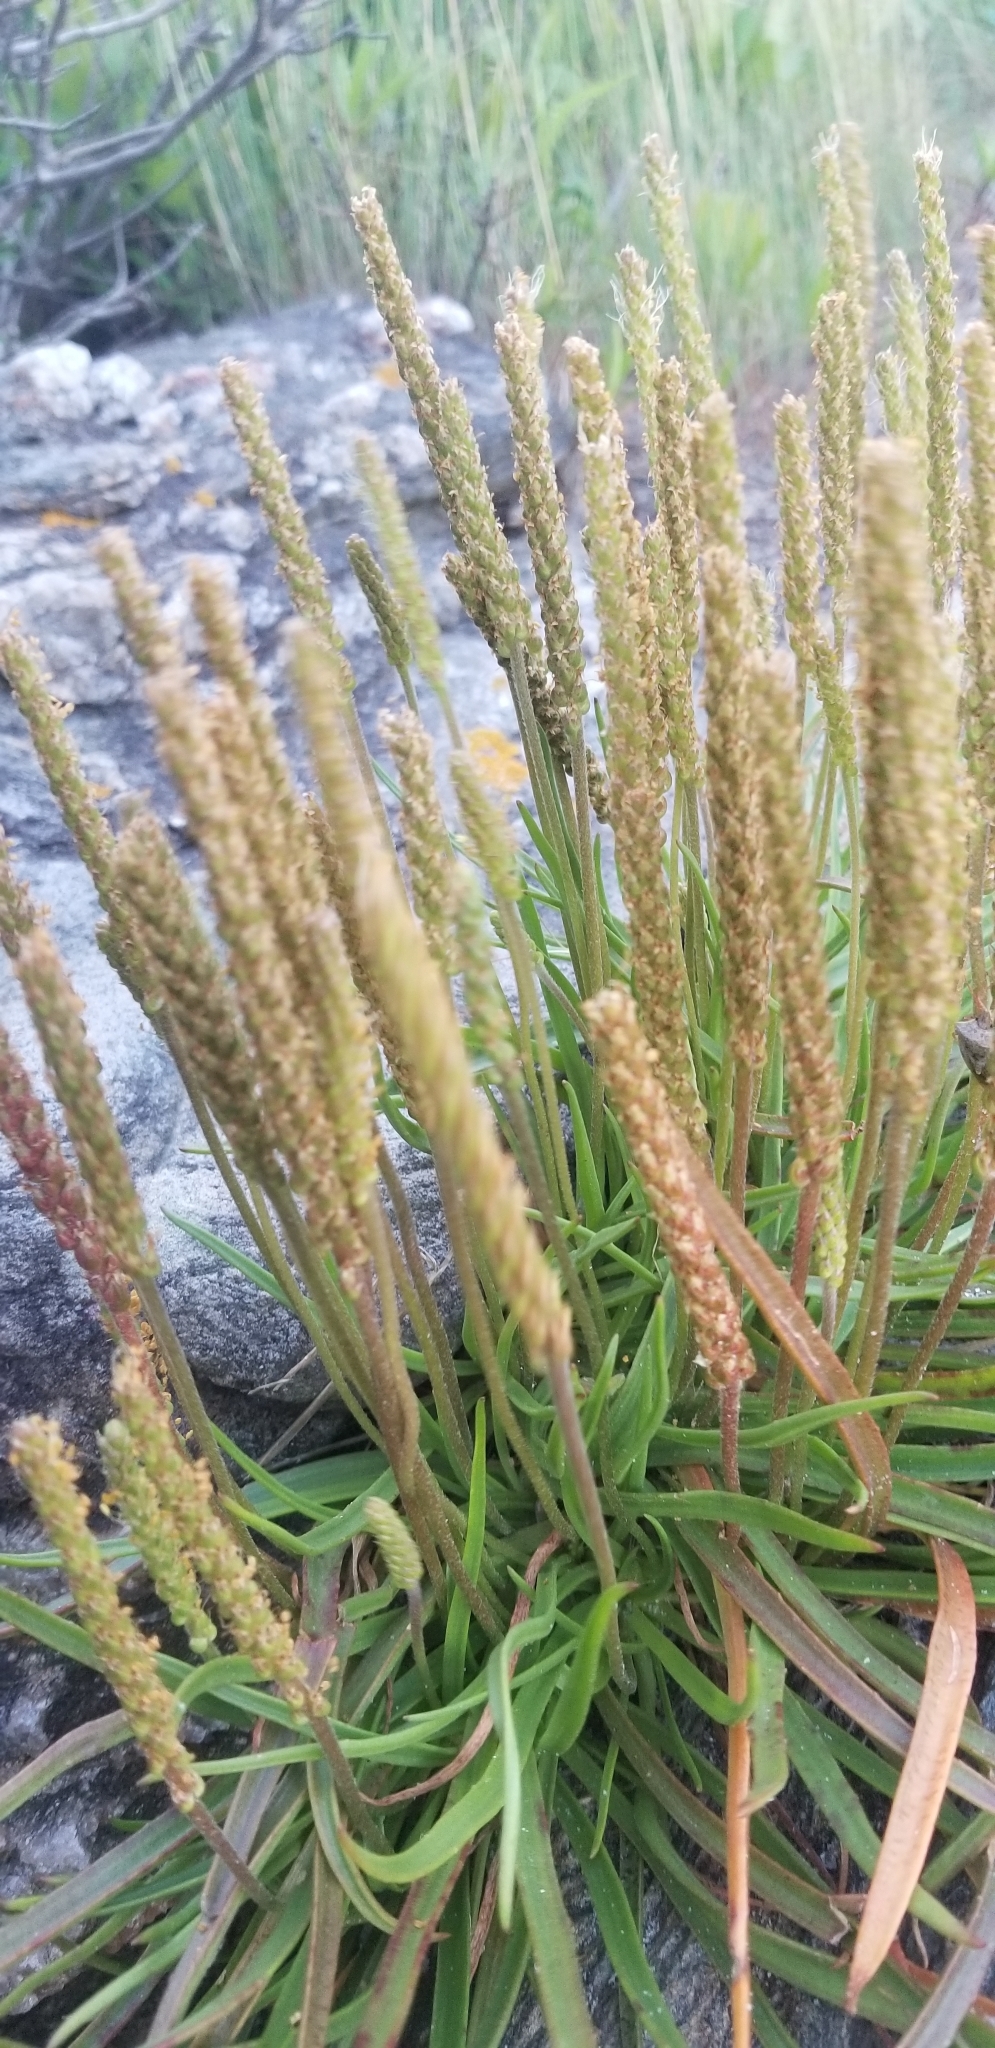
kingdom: Plantae
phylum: Tracheophyta
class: Magnoliopsida
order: Lamiales
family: Plantaginaceae
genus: Plantago
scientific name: Plantago maritima
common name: Sea plantain
